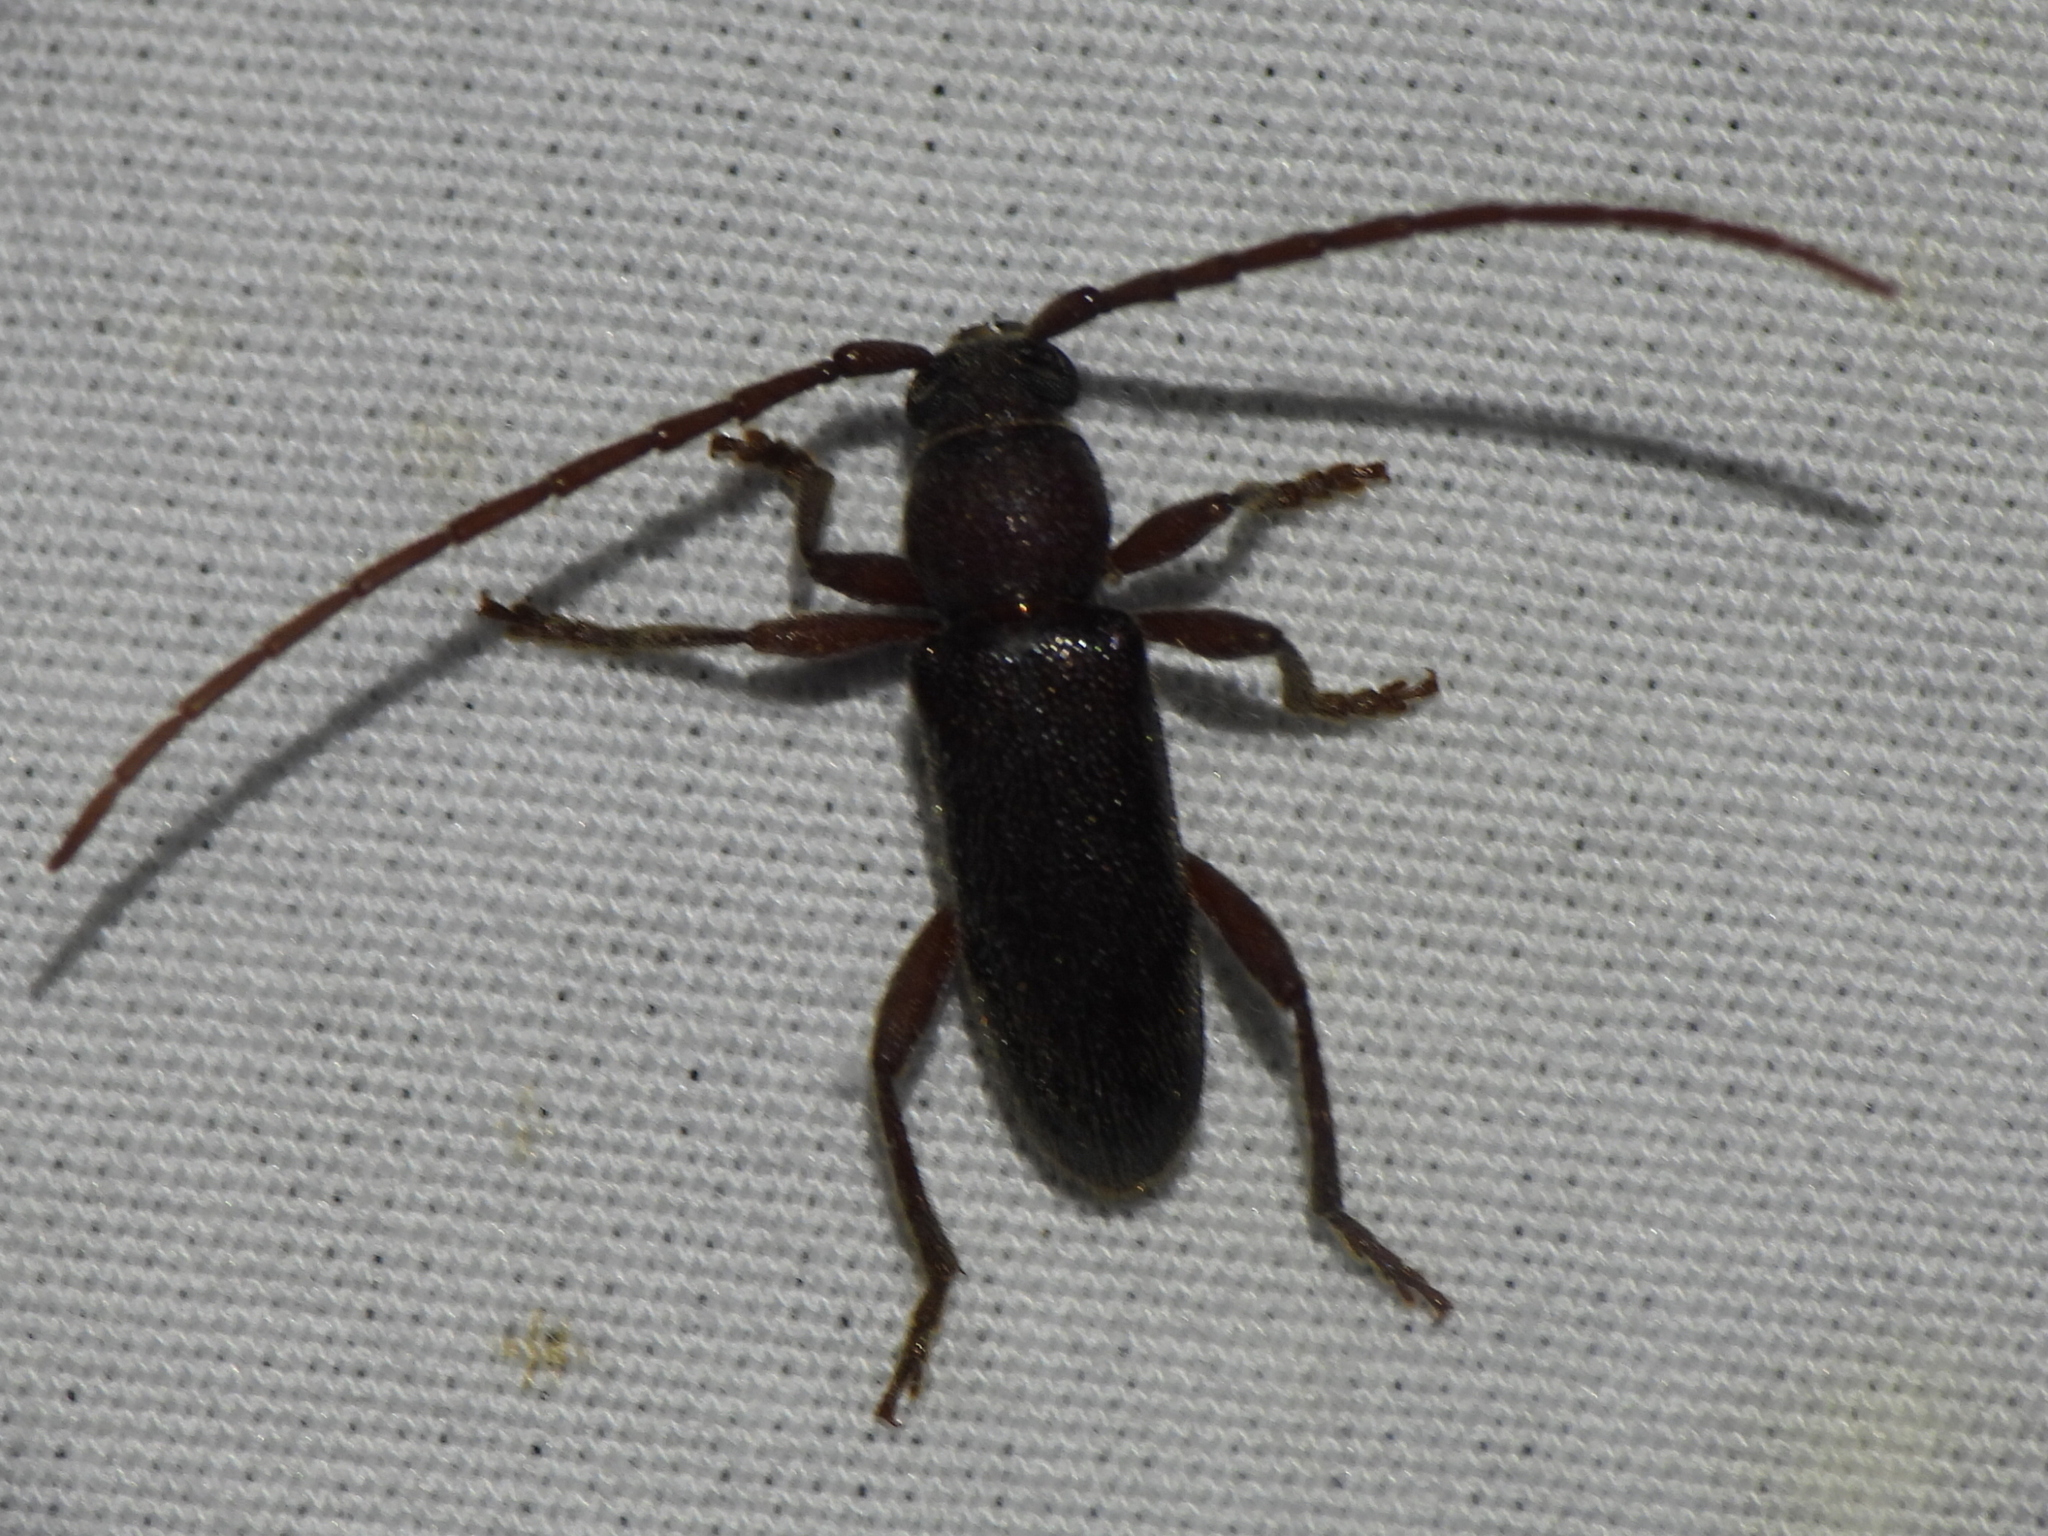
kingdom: Animalia
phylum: Arthropoda
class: Insecta
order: Coleoptera
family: Cerambycidae
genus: Anelaphus
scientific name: Anelaphus moestus
